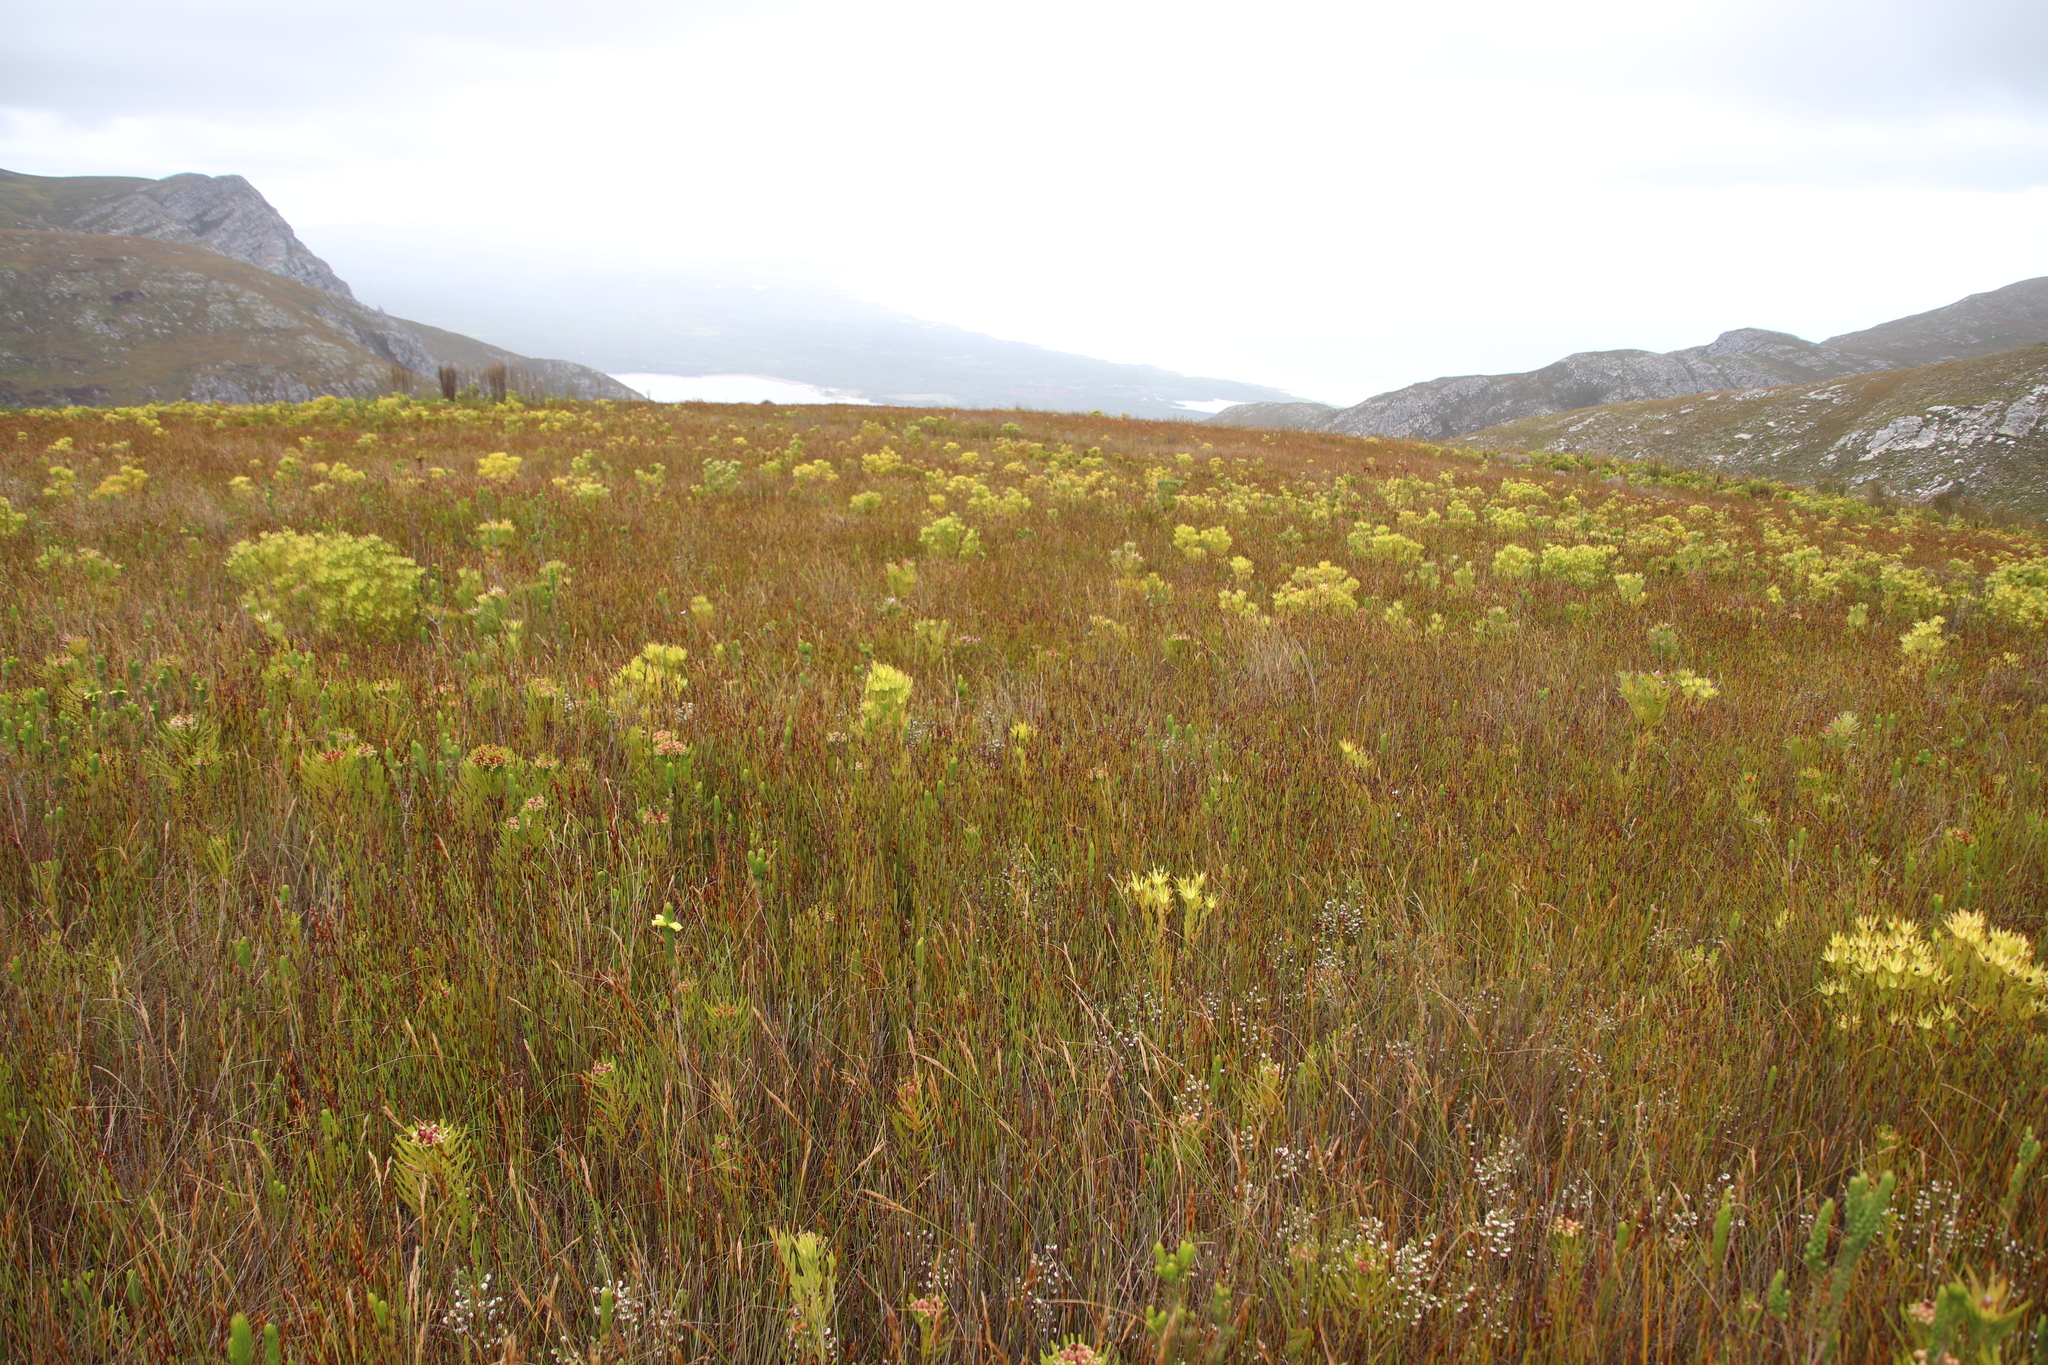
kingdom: Plantae
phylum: Tracheophyta
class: Magnoliopsida
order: Proteales
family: Proteaceae
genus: Leucadendron
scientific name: Leucadendron xanthoconus
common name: Sickle-leaf conebush
